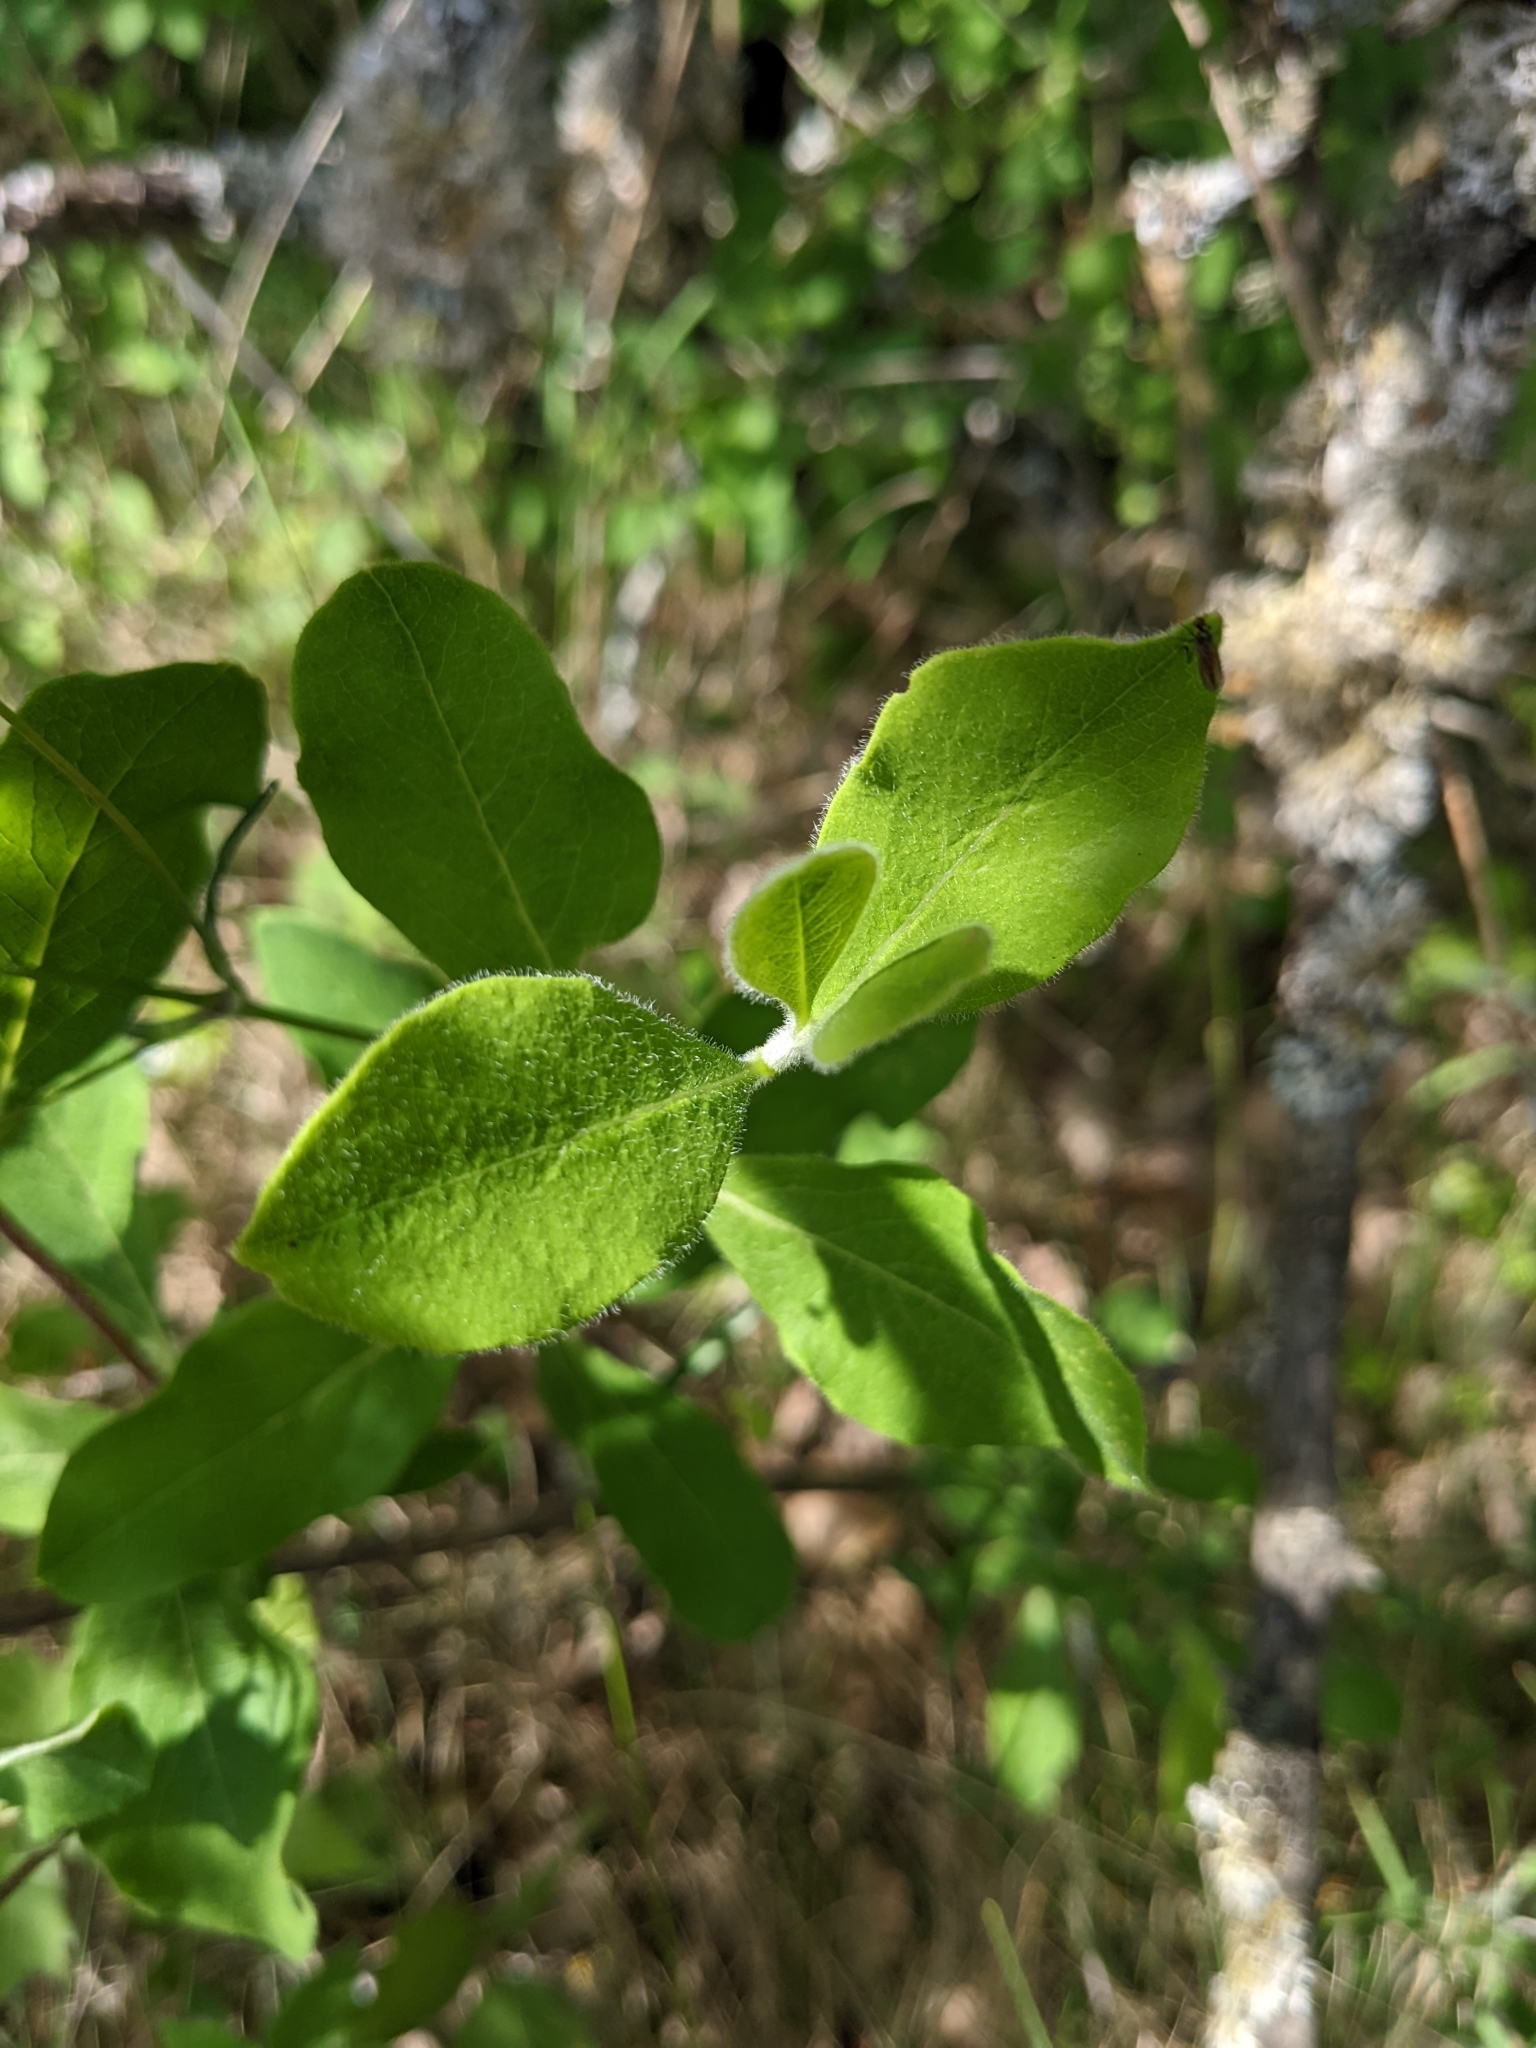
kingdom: Plantae
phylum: Tracheophyta
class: Magnoliopsida
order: Dipsacales
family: Caprifoliaceae
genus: Lonicera
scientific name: Lonicera etrusca
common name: Etruscan honeysuckle
